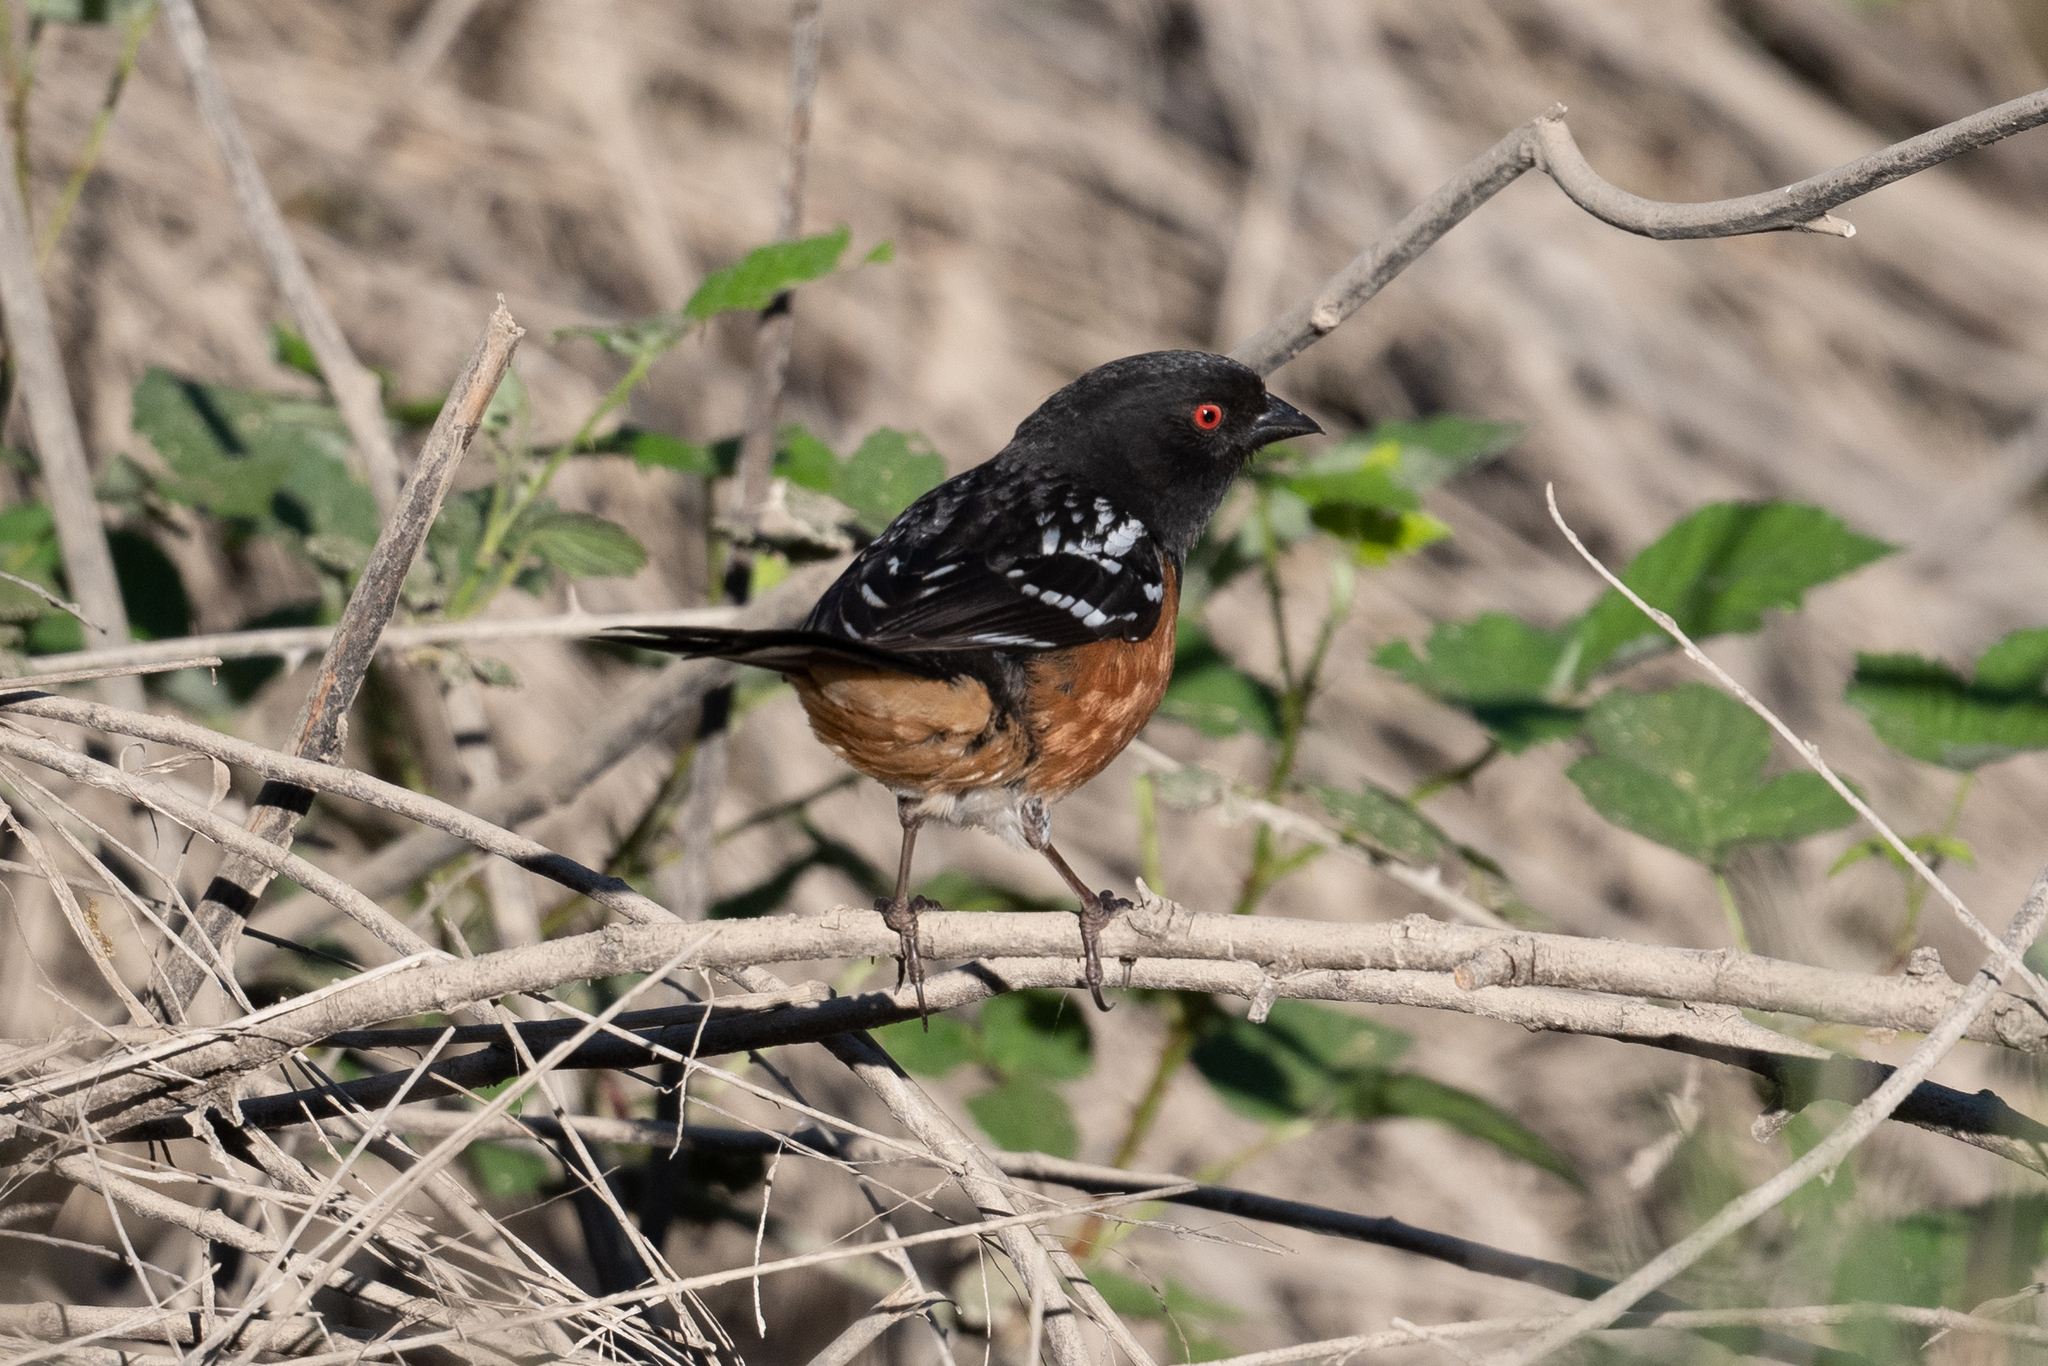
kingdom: Animalia
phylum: Chordata
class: Aves
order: Passeriformes
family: Passerellidae
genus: Pipilo
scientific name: Pipilo maculatus
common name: Spotted towhee
